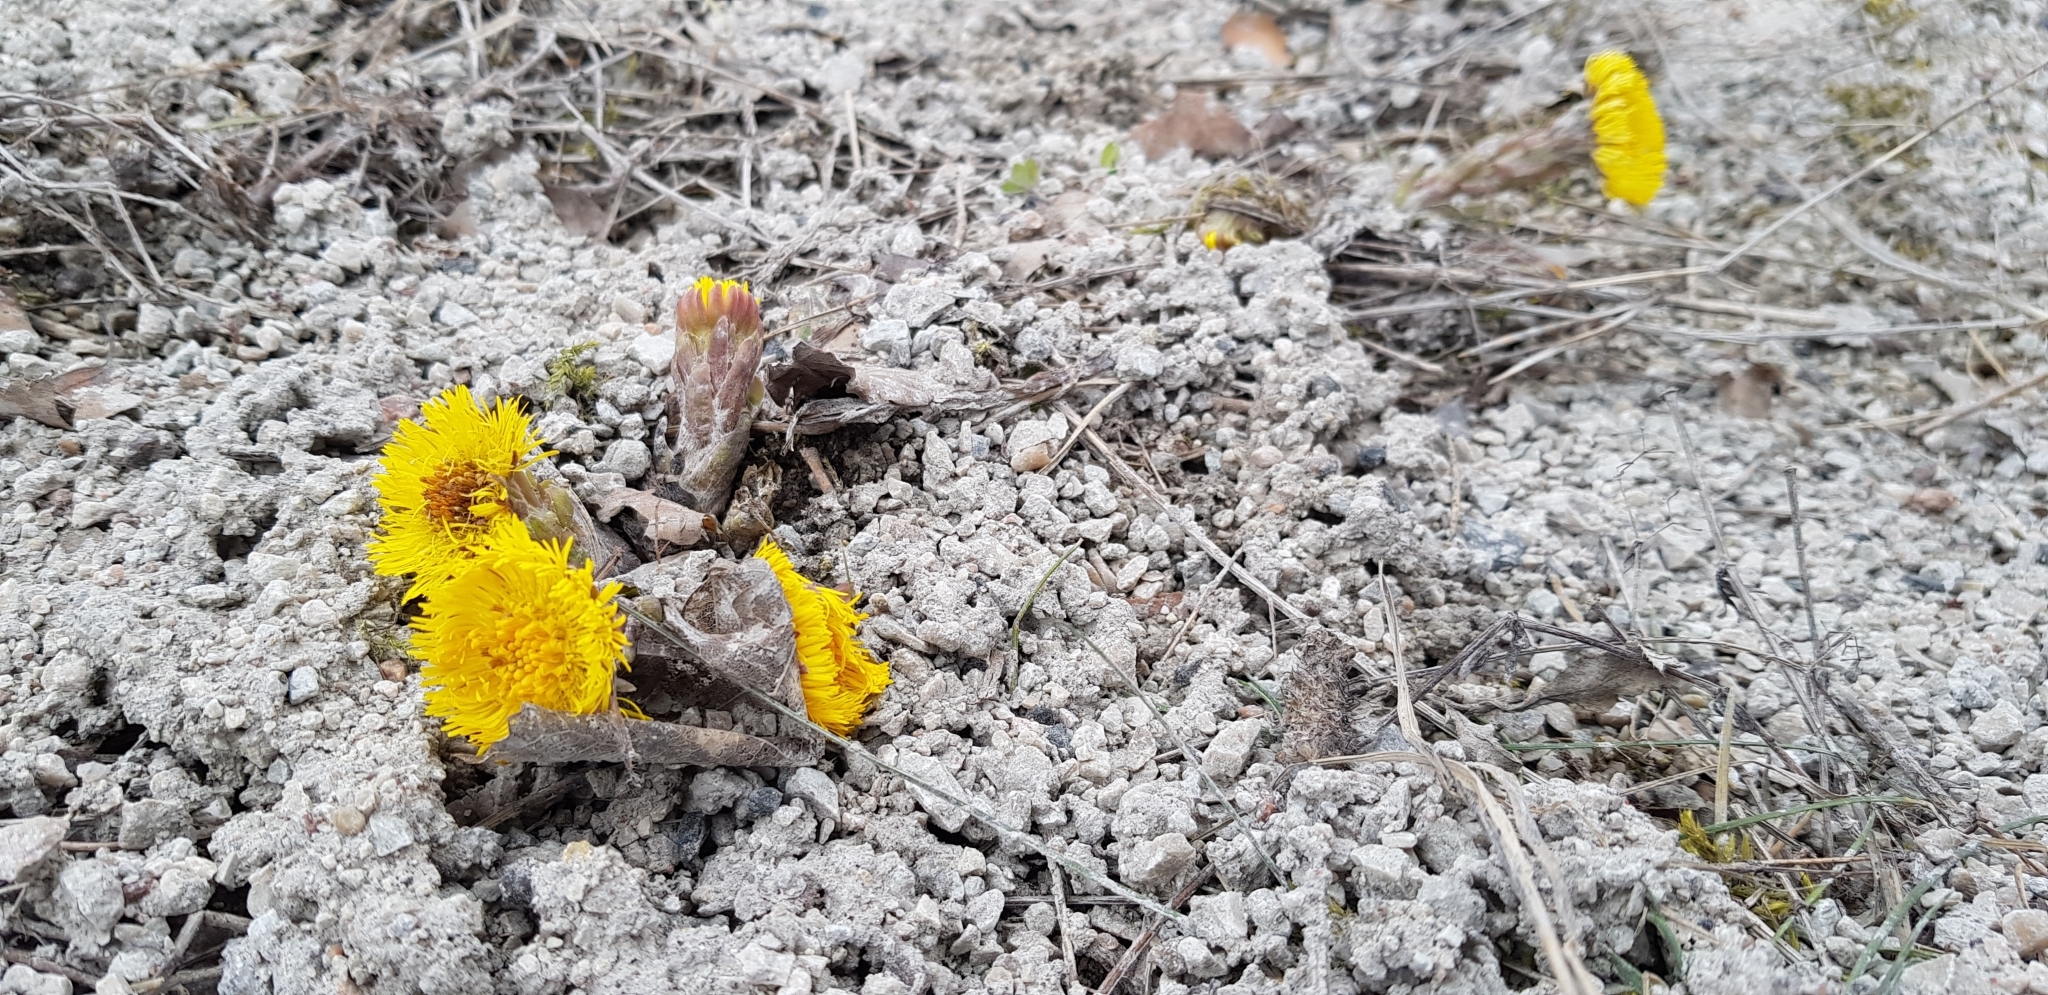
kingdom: Plantae
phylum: Tracheophyta
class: Magnoliopsida
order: Asterales
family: Asteraceae
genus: Tussilago
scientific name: Tussilago farfara
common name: Coltsfoot
